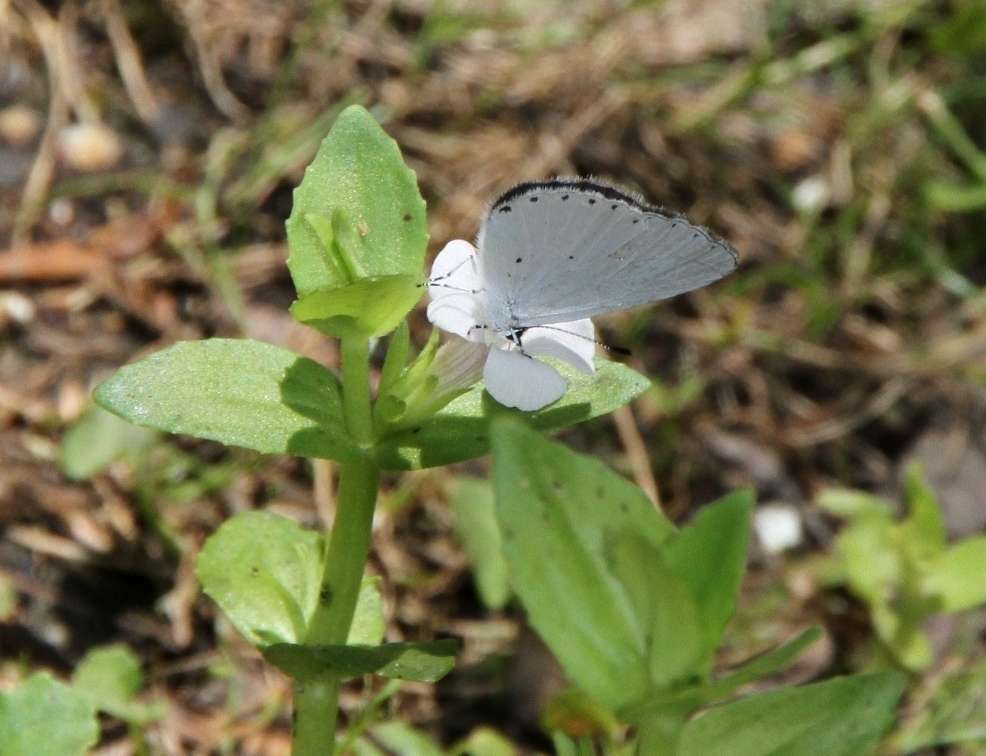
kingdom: Plantae
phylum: Tracheophyta
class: Magnoliopsida
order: Lamiales
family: Plantaginaceae
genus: Gratiola
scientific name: Gratiola peruviana
